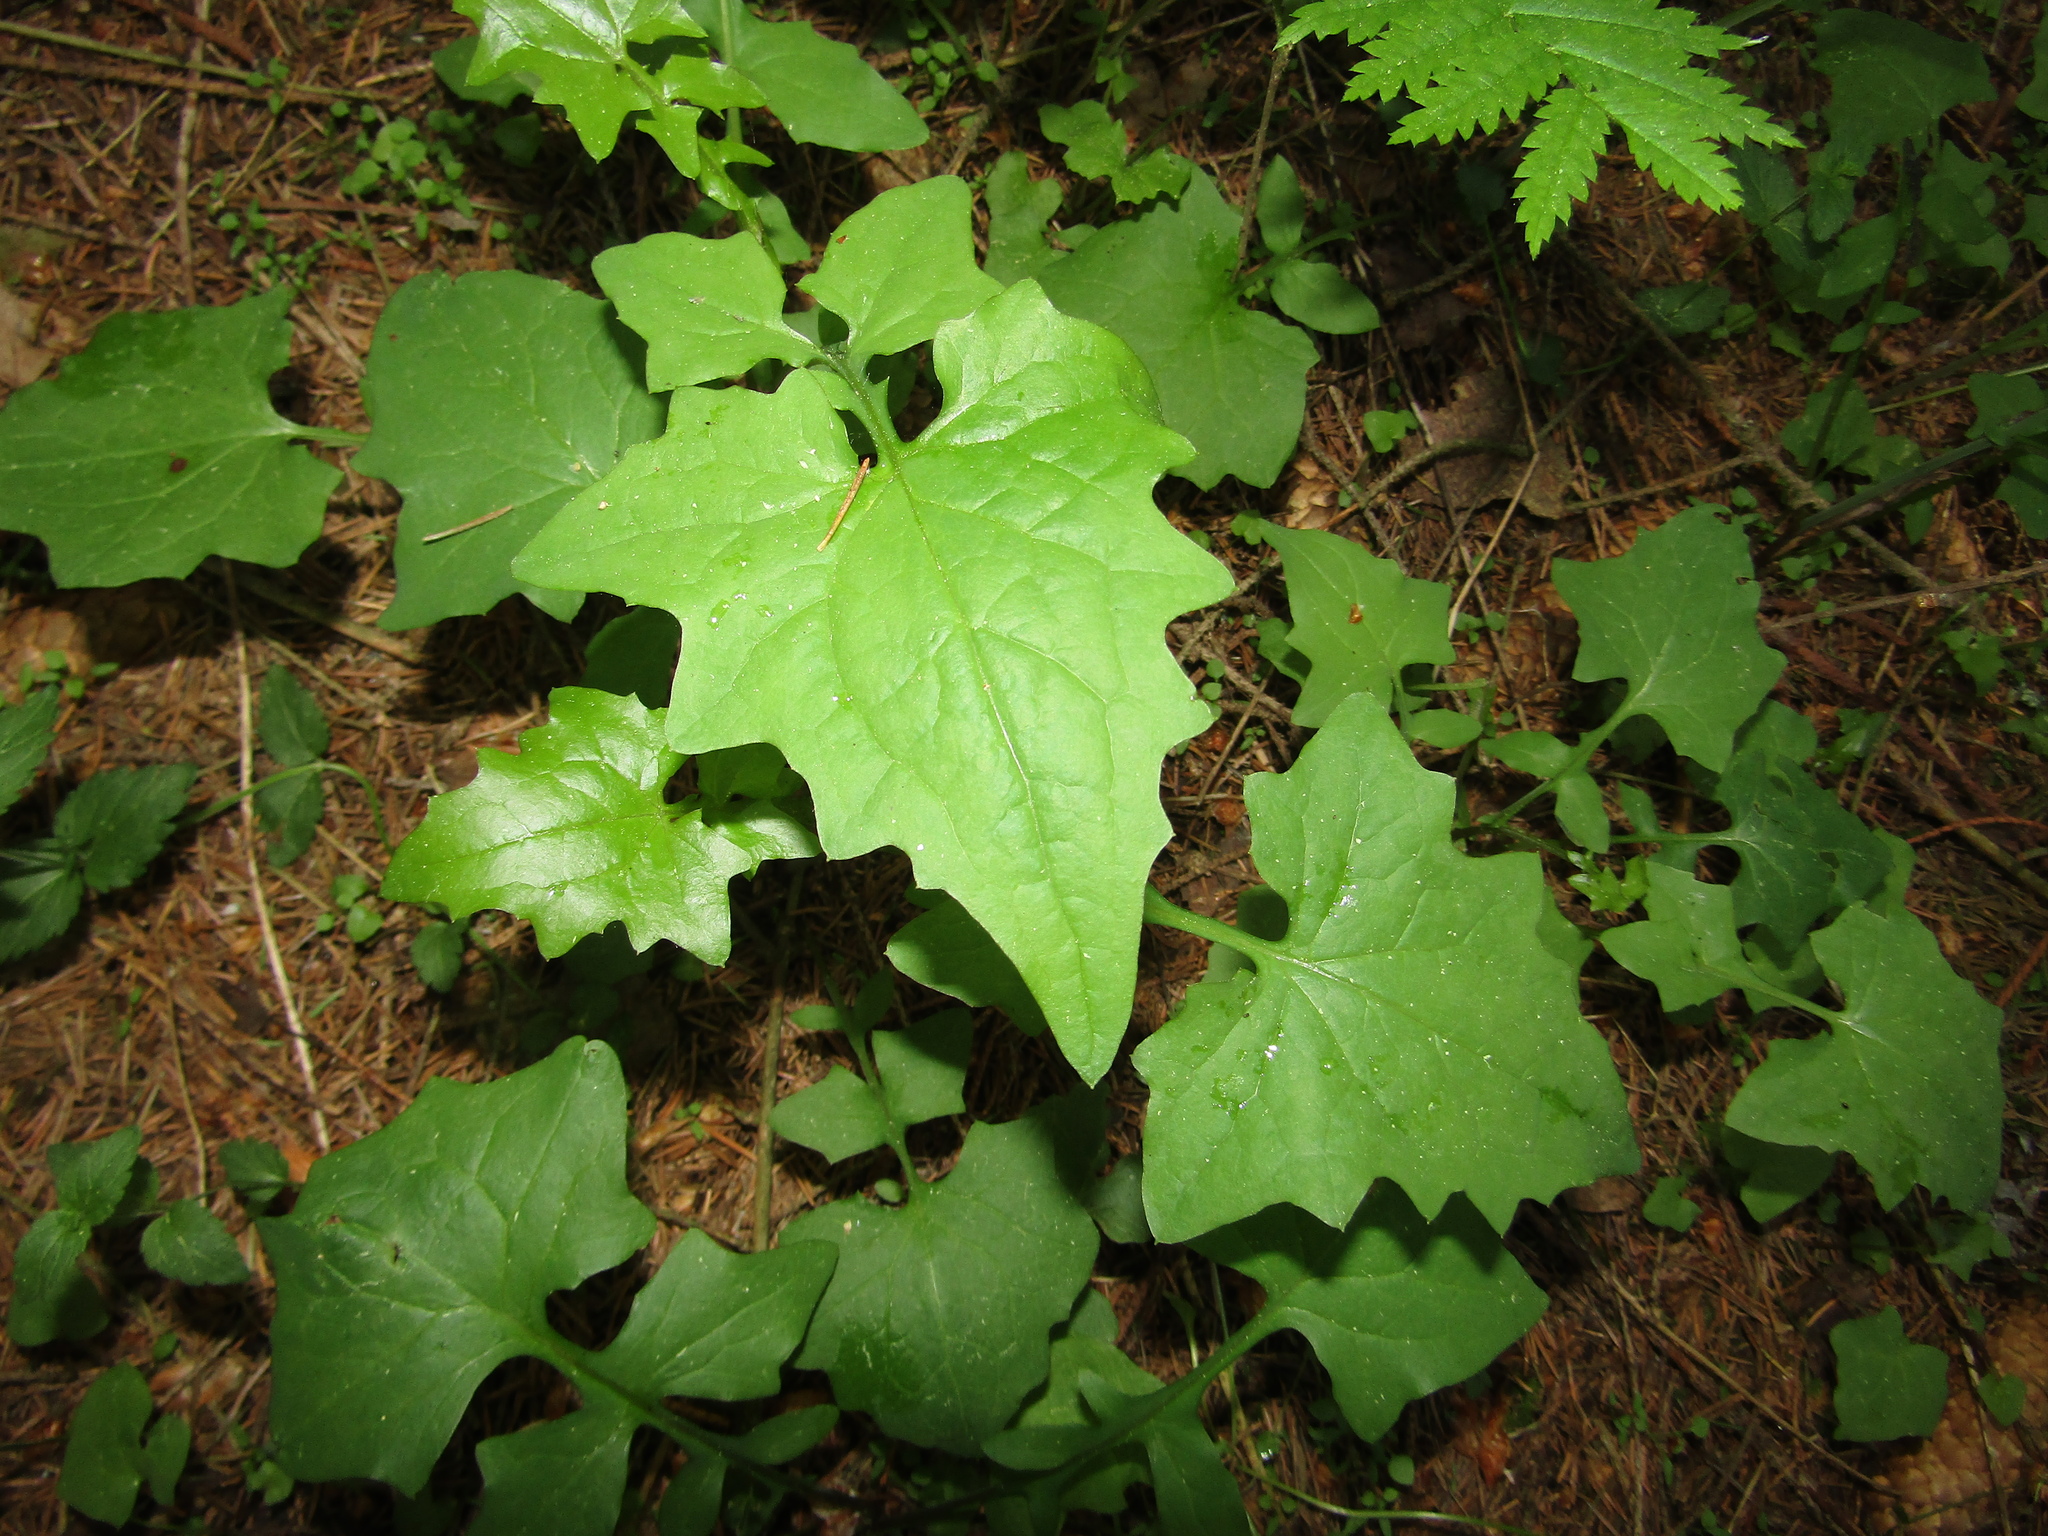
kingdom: Plantae
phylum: Tracheophyta
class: Magnoliopsida
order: Asterales
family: Asteraceae
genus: Mycelis
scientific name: Mycelis muralis
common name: Wall lettuce
